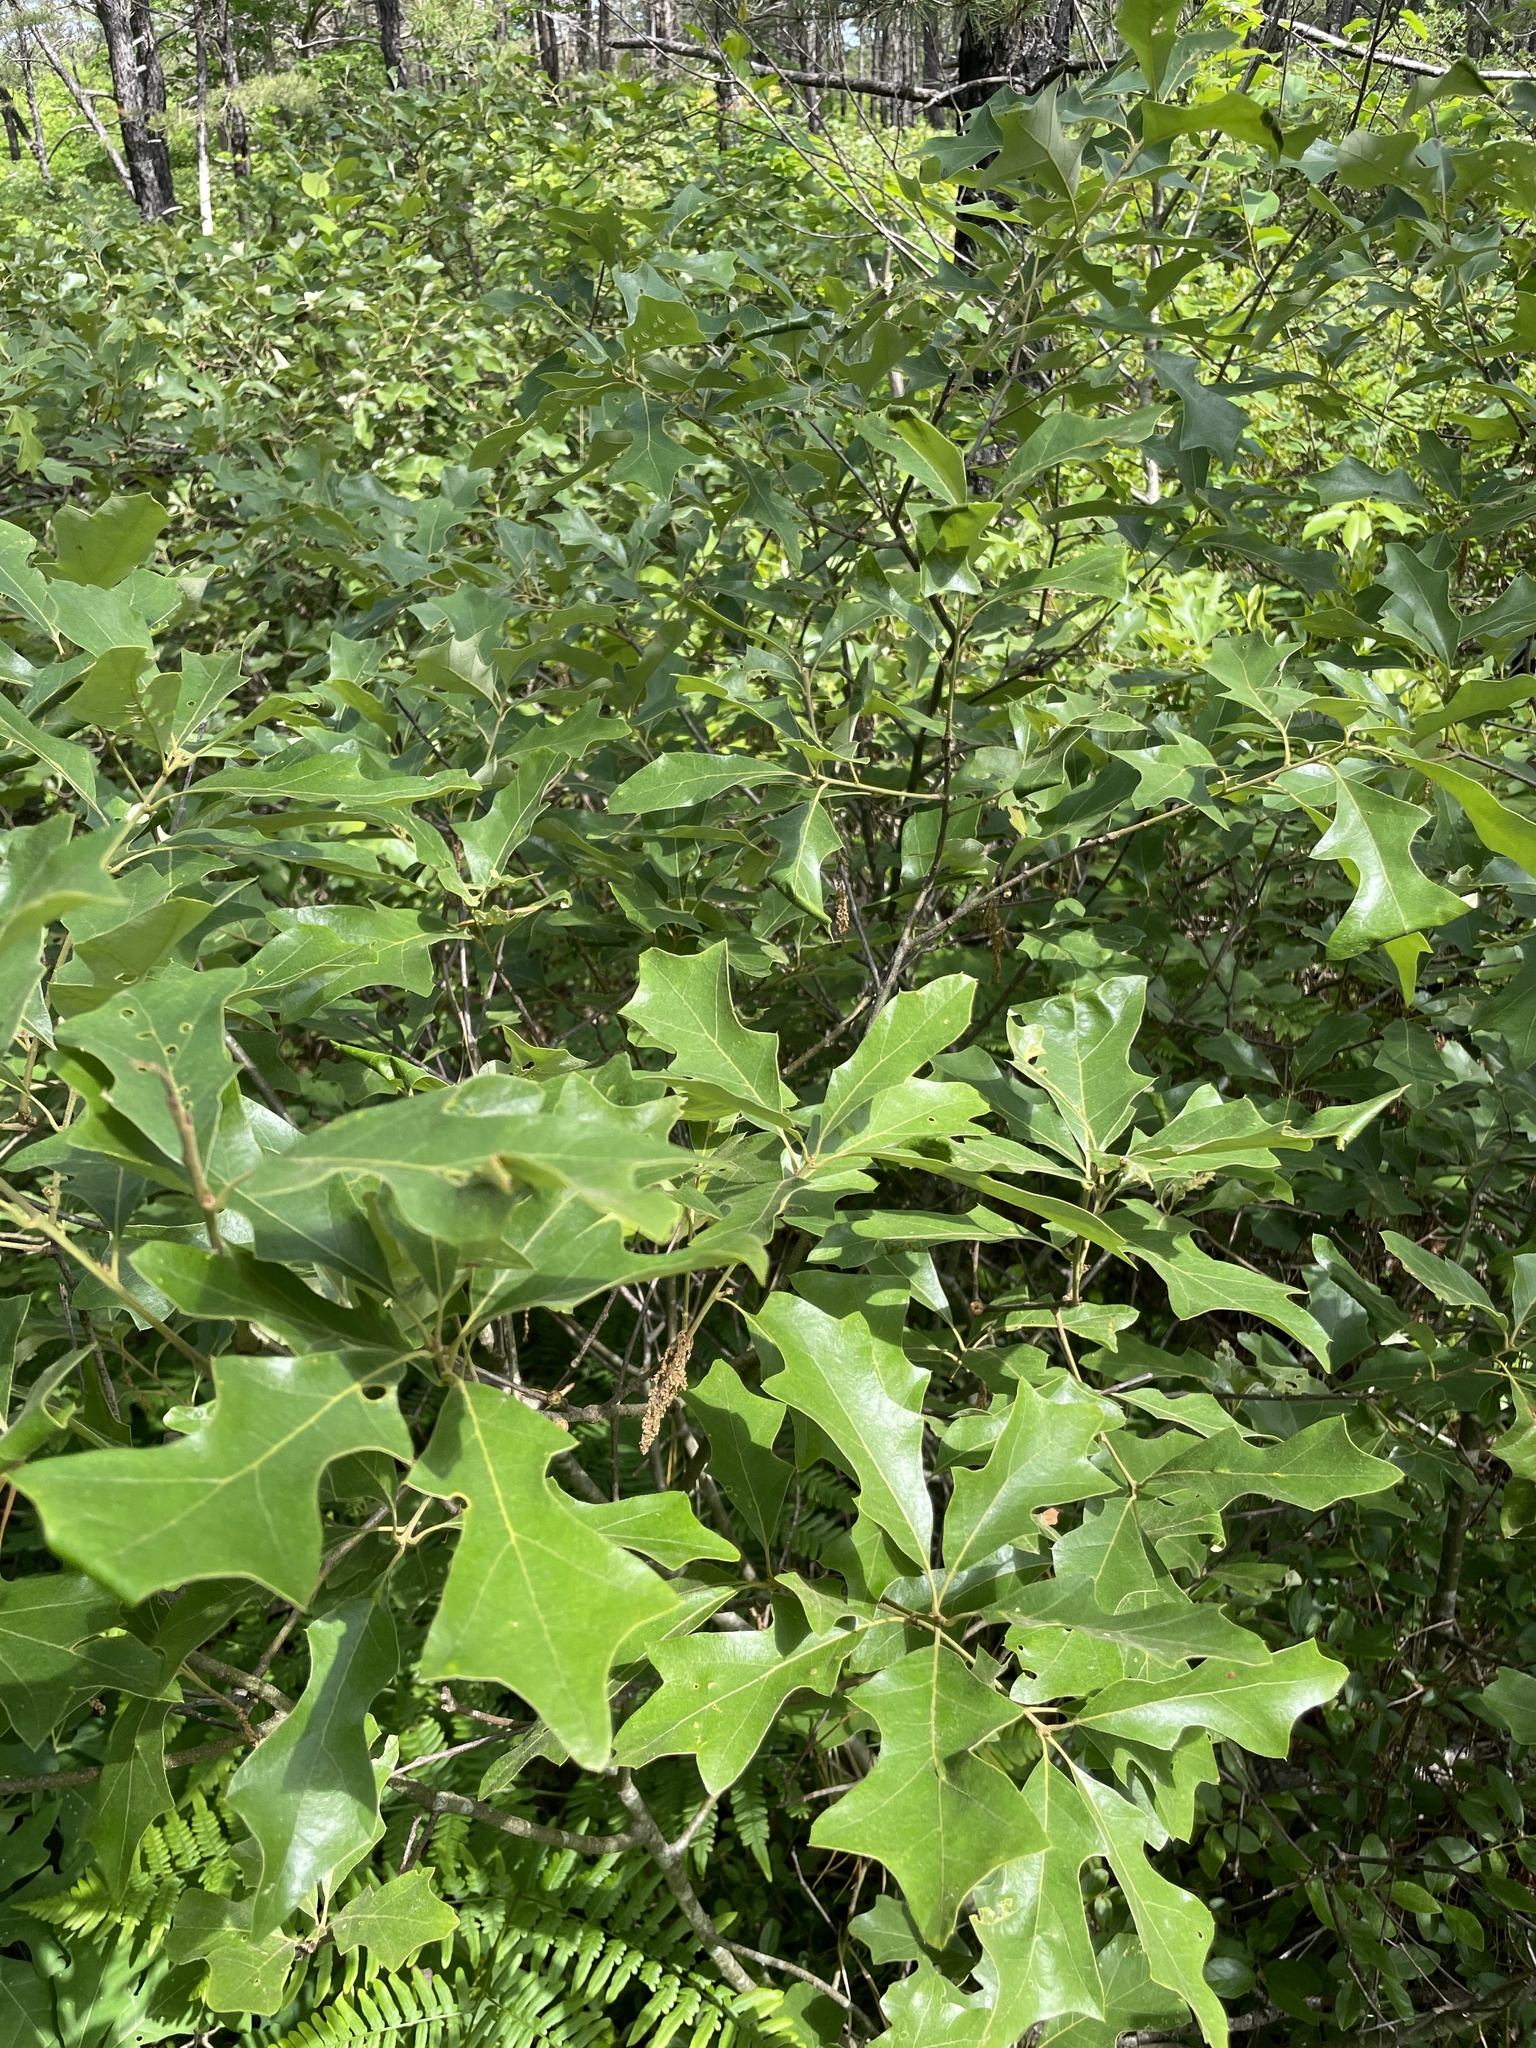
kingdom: Plantae
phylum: Tracheophyta
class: Magnoliopsida
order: Fagales
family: Fagaceae
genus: Quercus
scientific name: Quercus ilicifolia
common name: Bear oak
